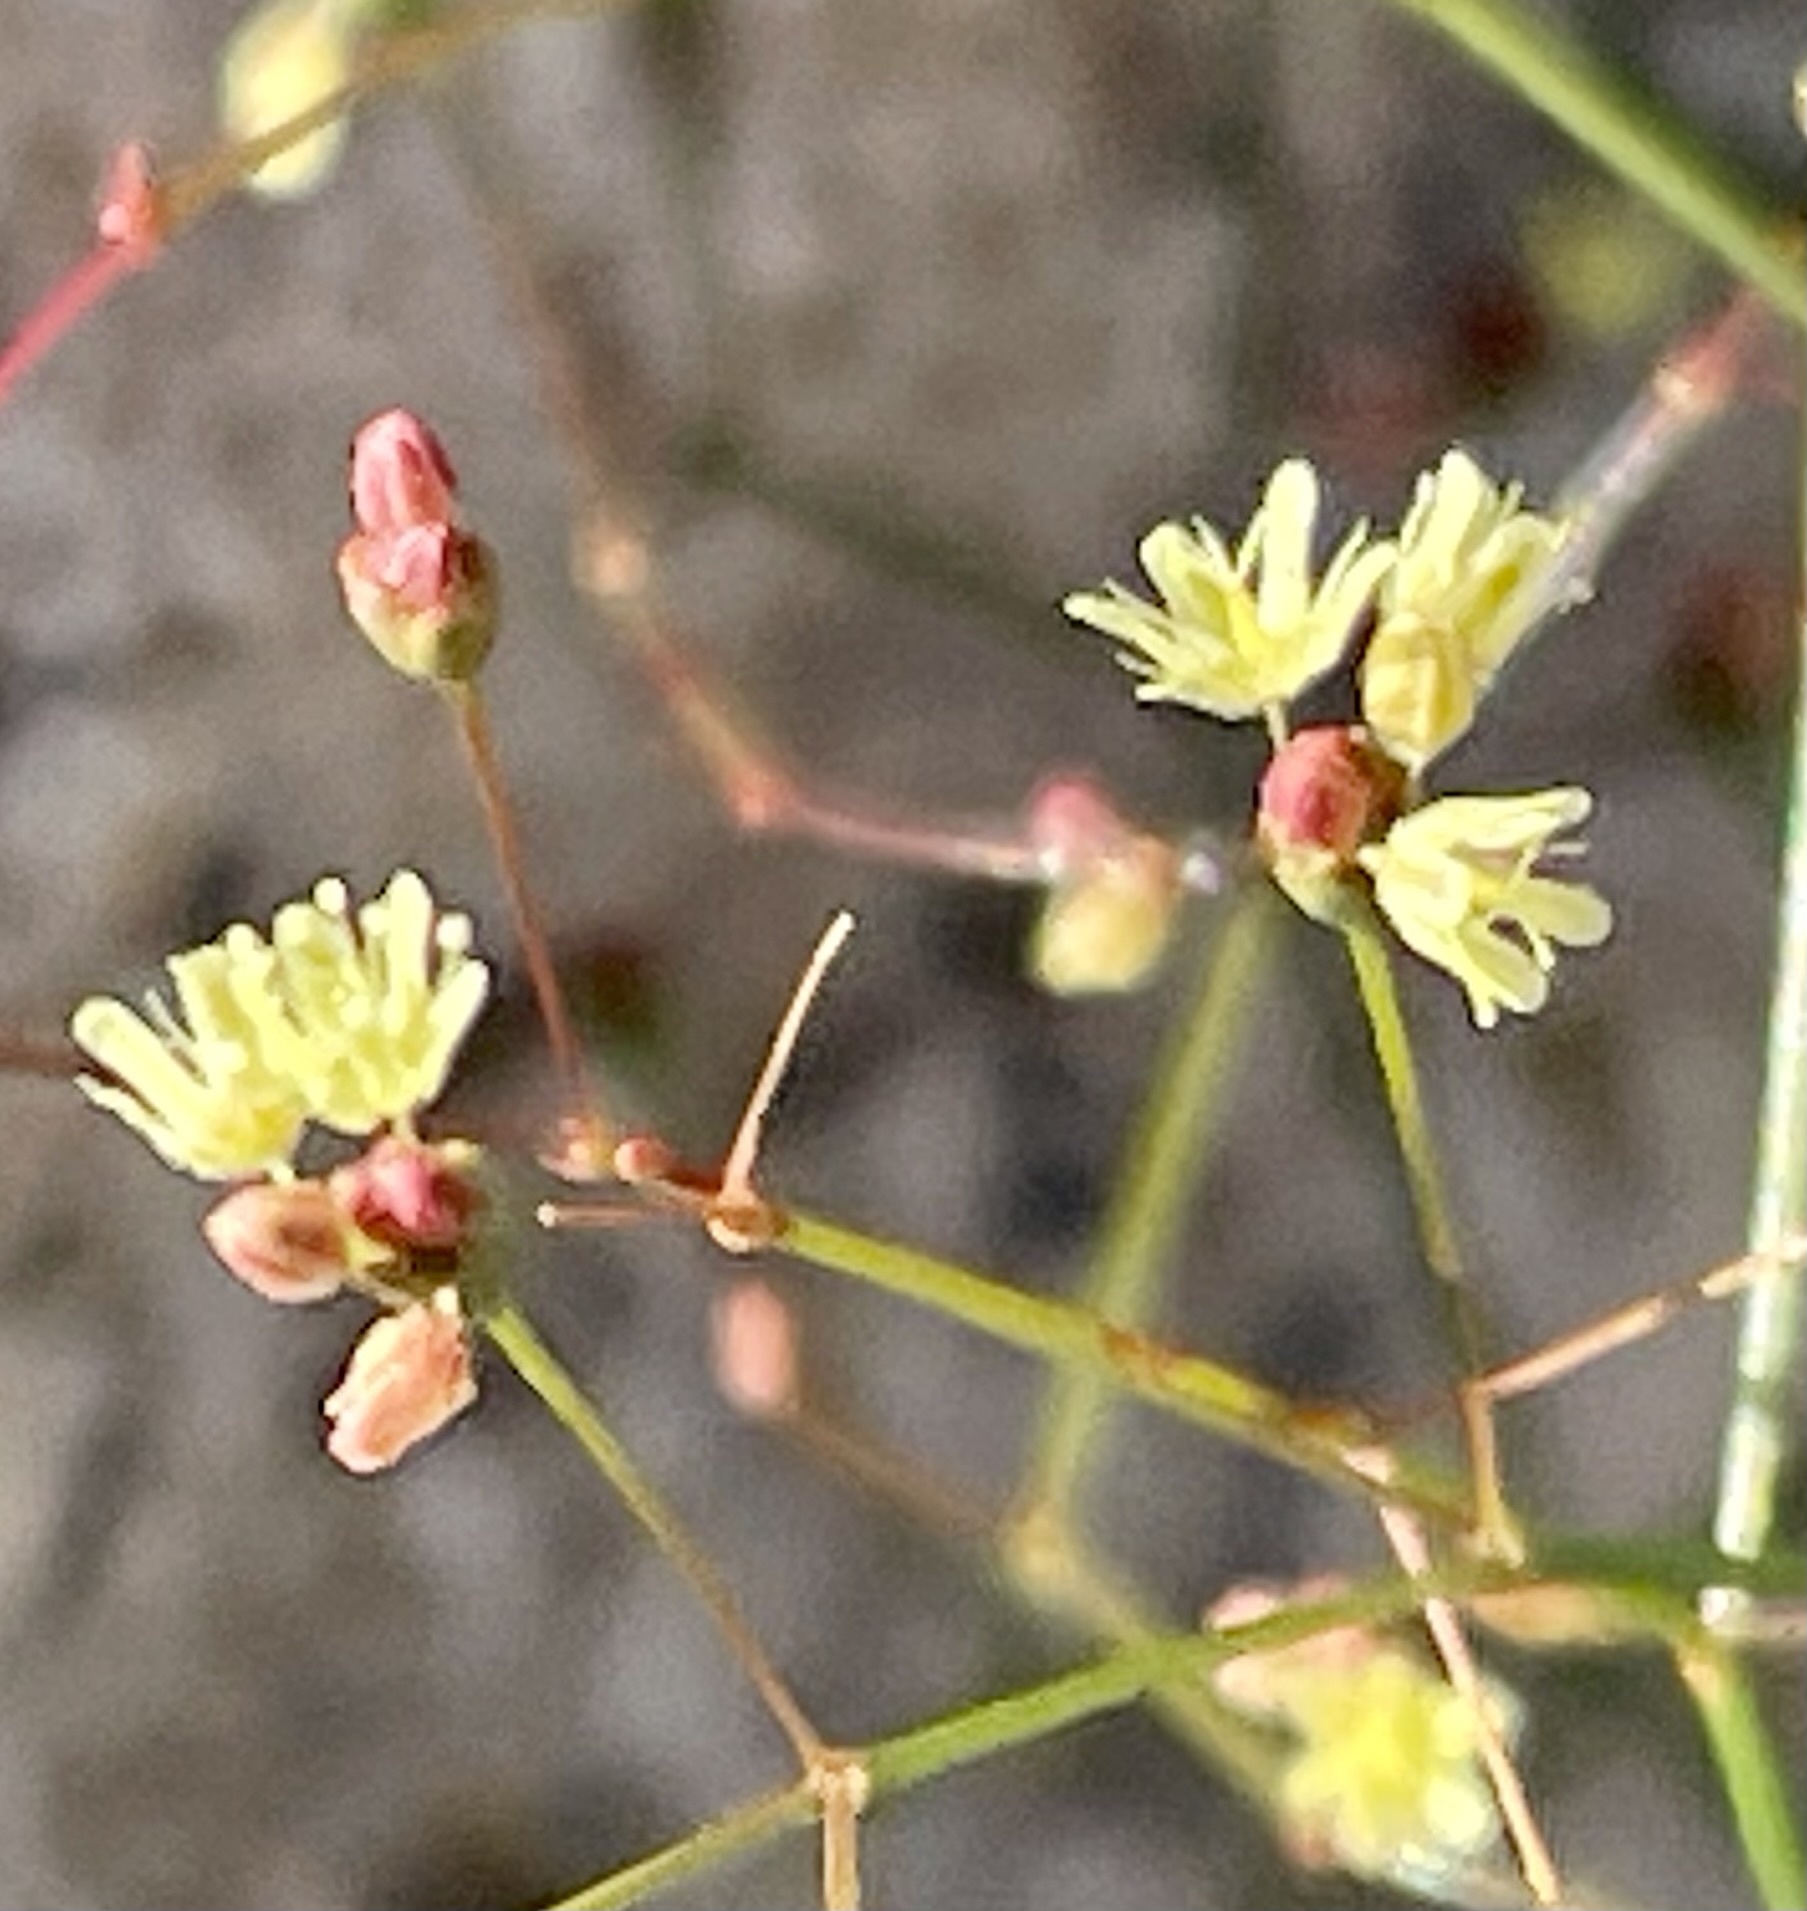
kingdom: Plantae
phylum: Tracheophyta
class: Magnoliopsida
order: Caryophyllales
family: Polygonaceae
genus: Eriogonum
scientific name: Eriogonum thomasii
